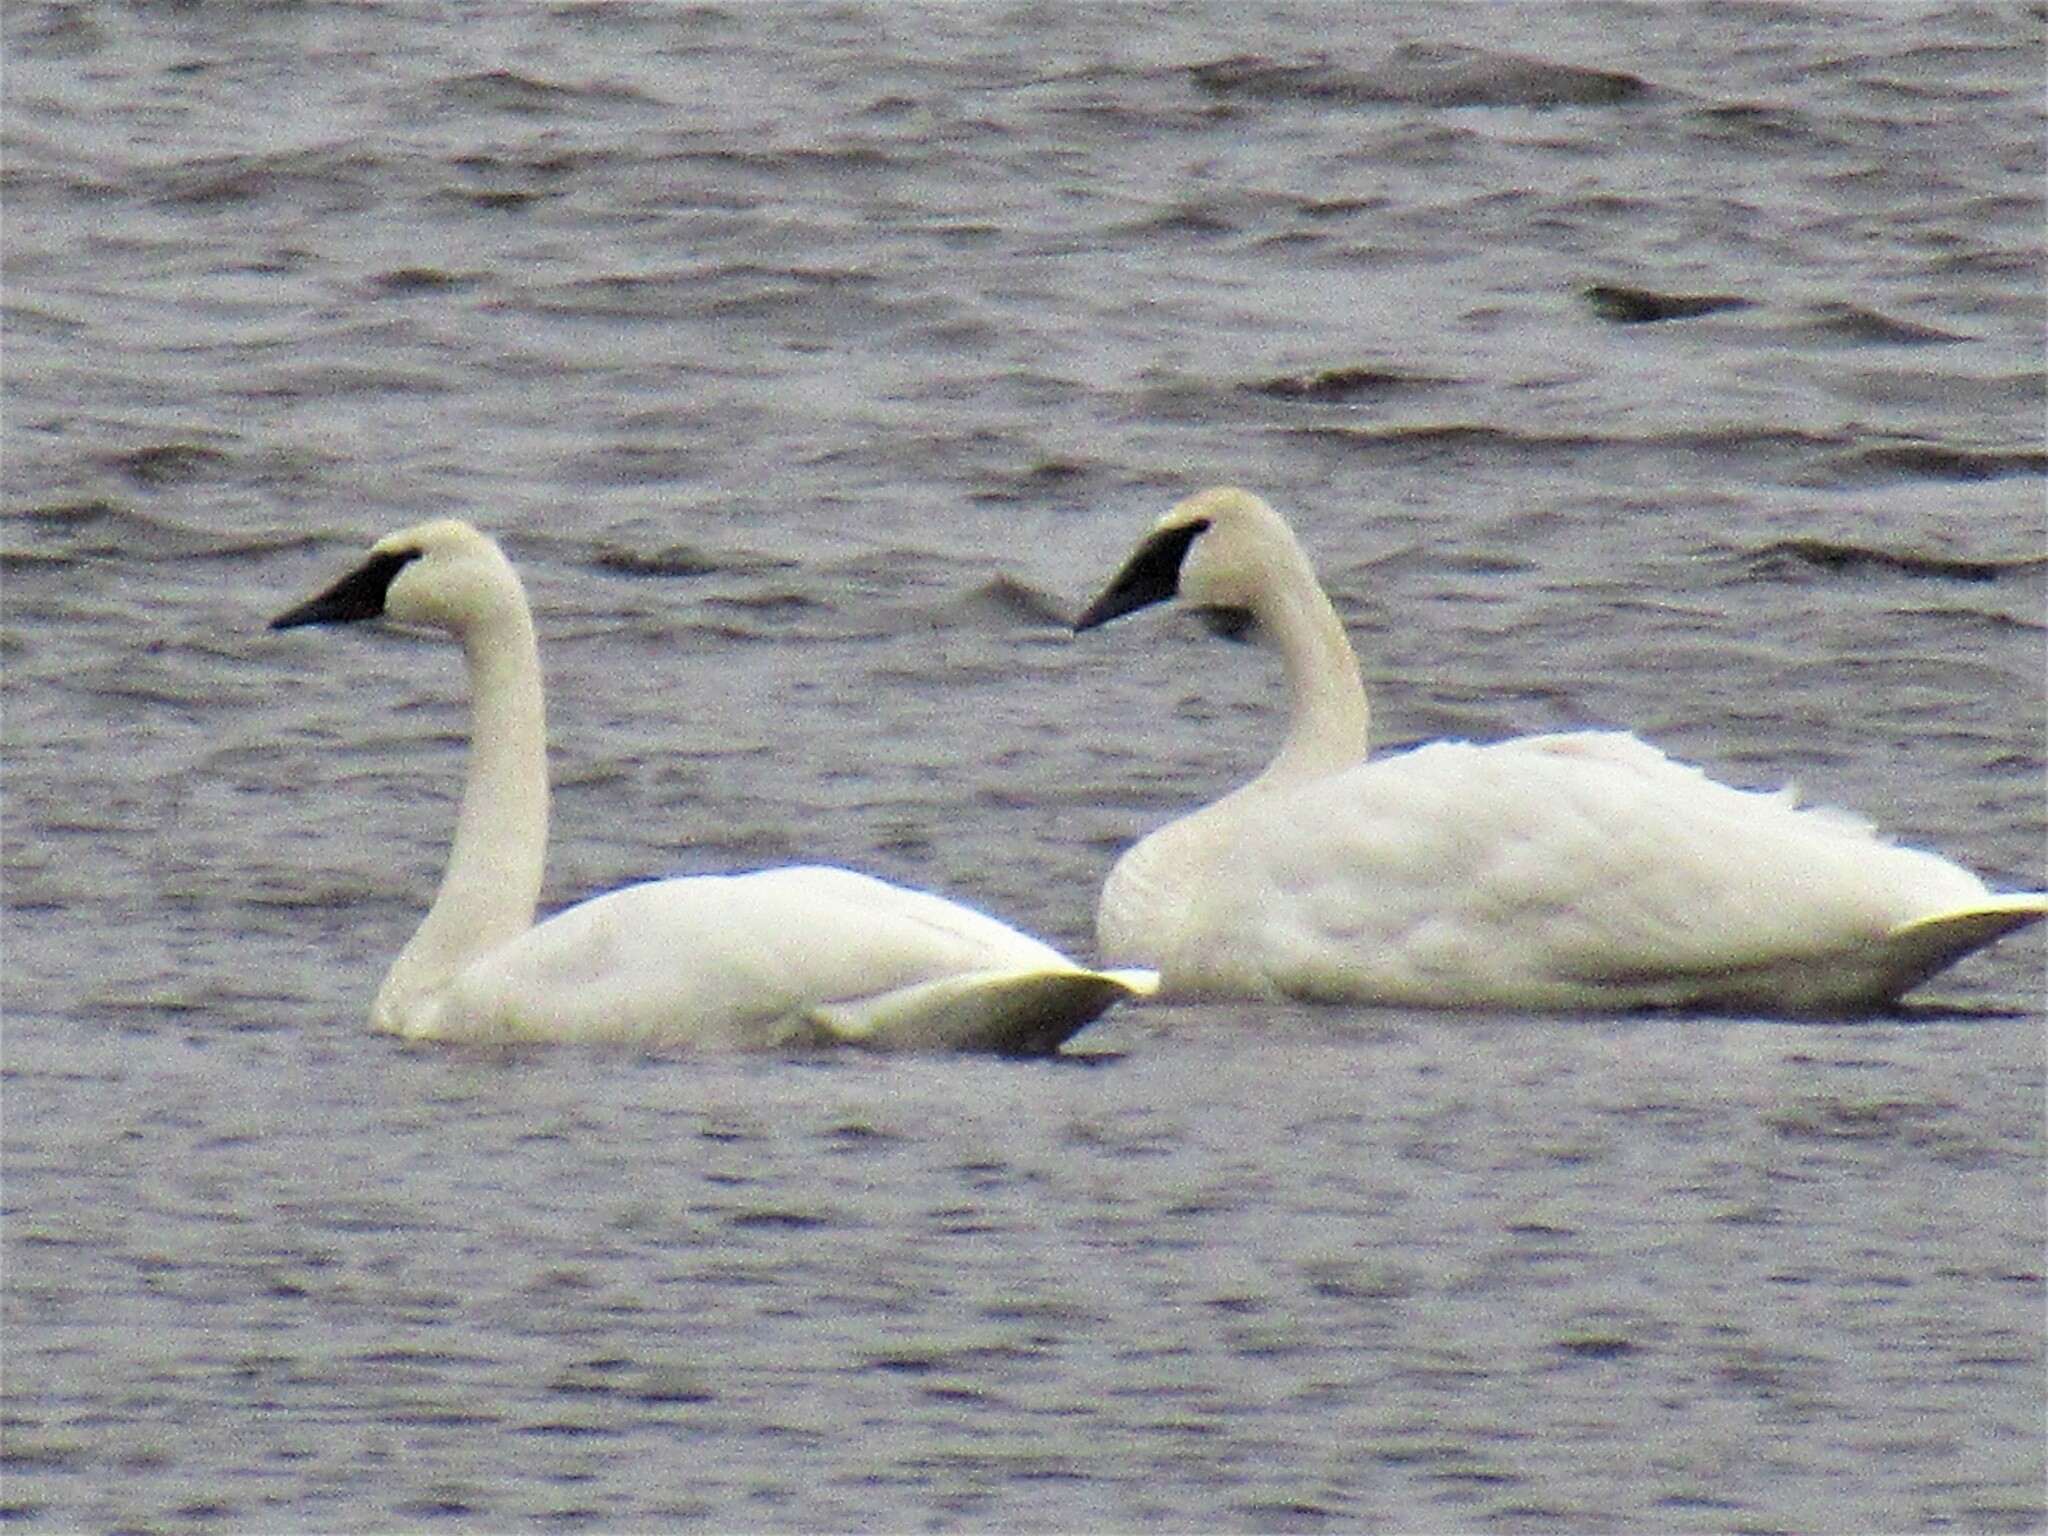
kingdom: Animalia
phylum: Chordata
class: Aves
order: Anseriformes
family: Anatidae
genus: Cygnus
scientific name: Cygnus buccinator
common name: Trumpeter swan
